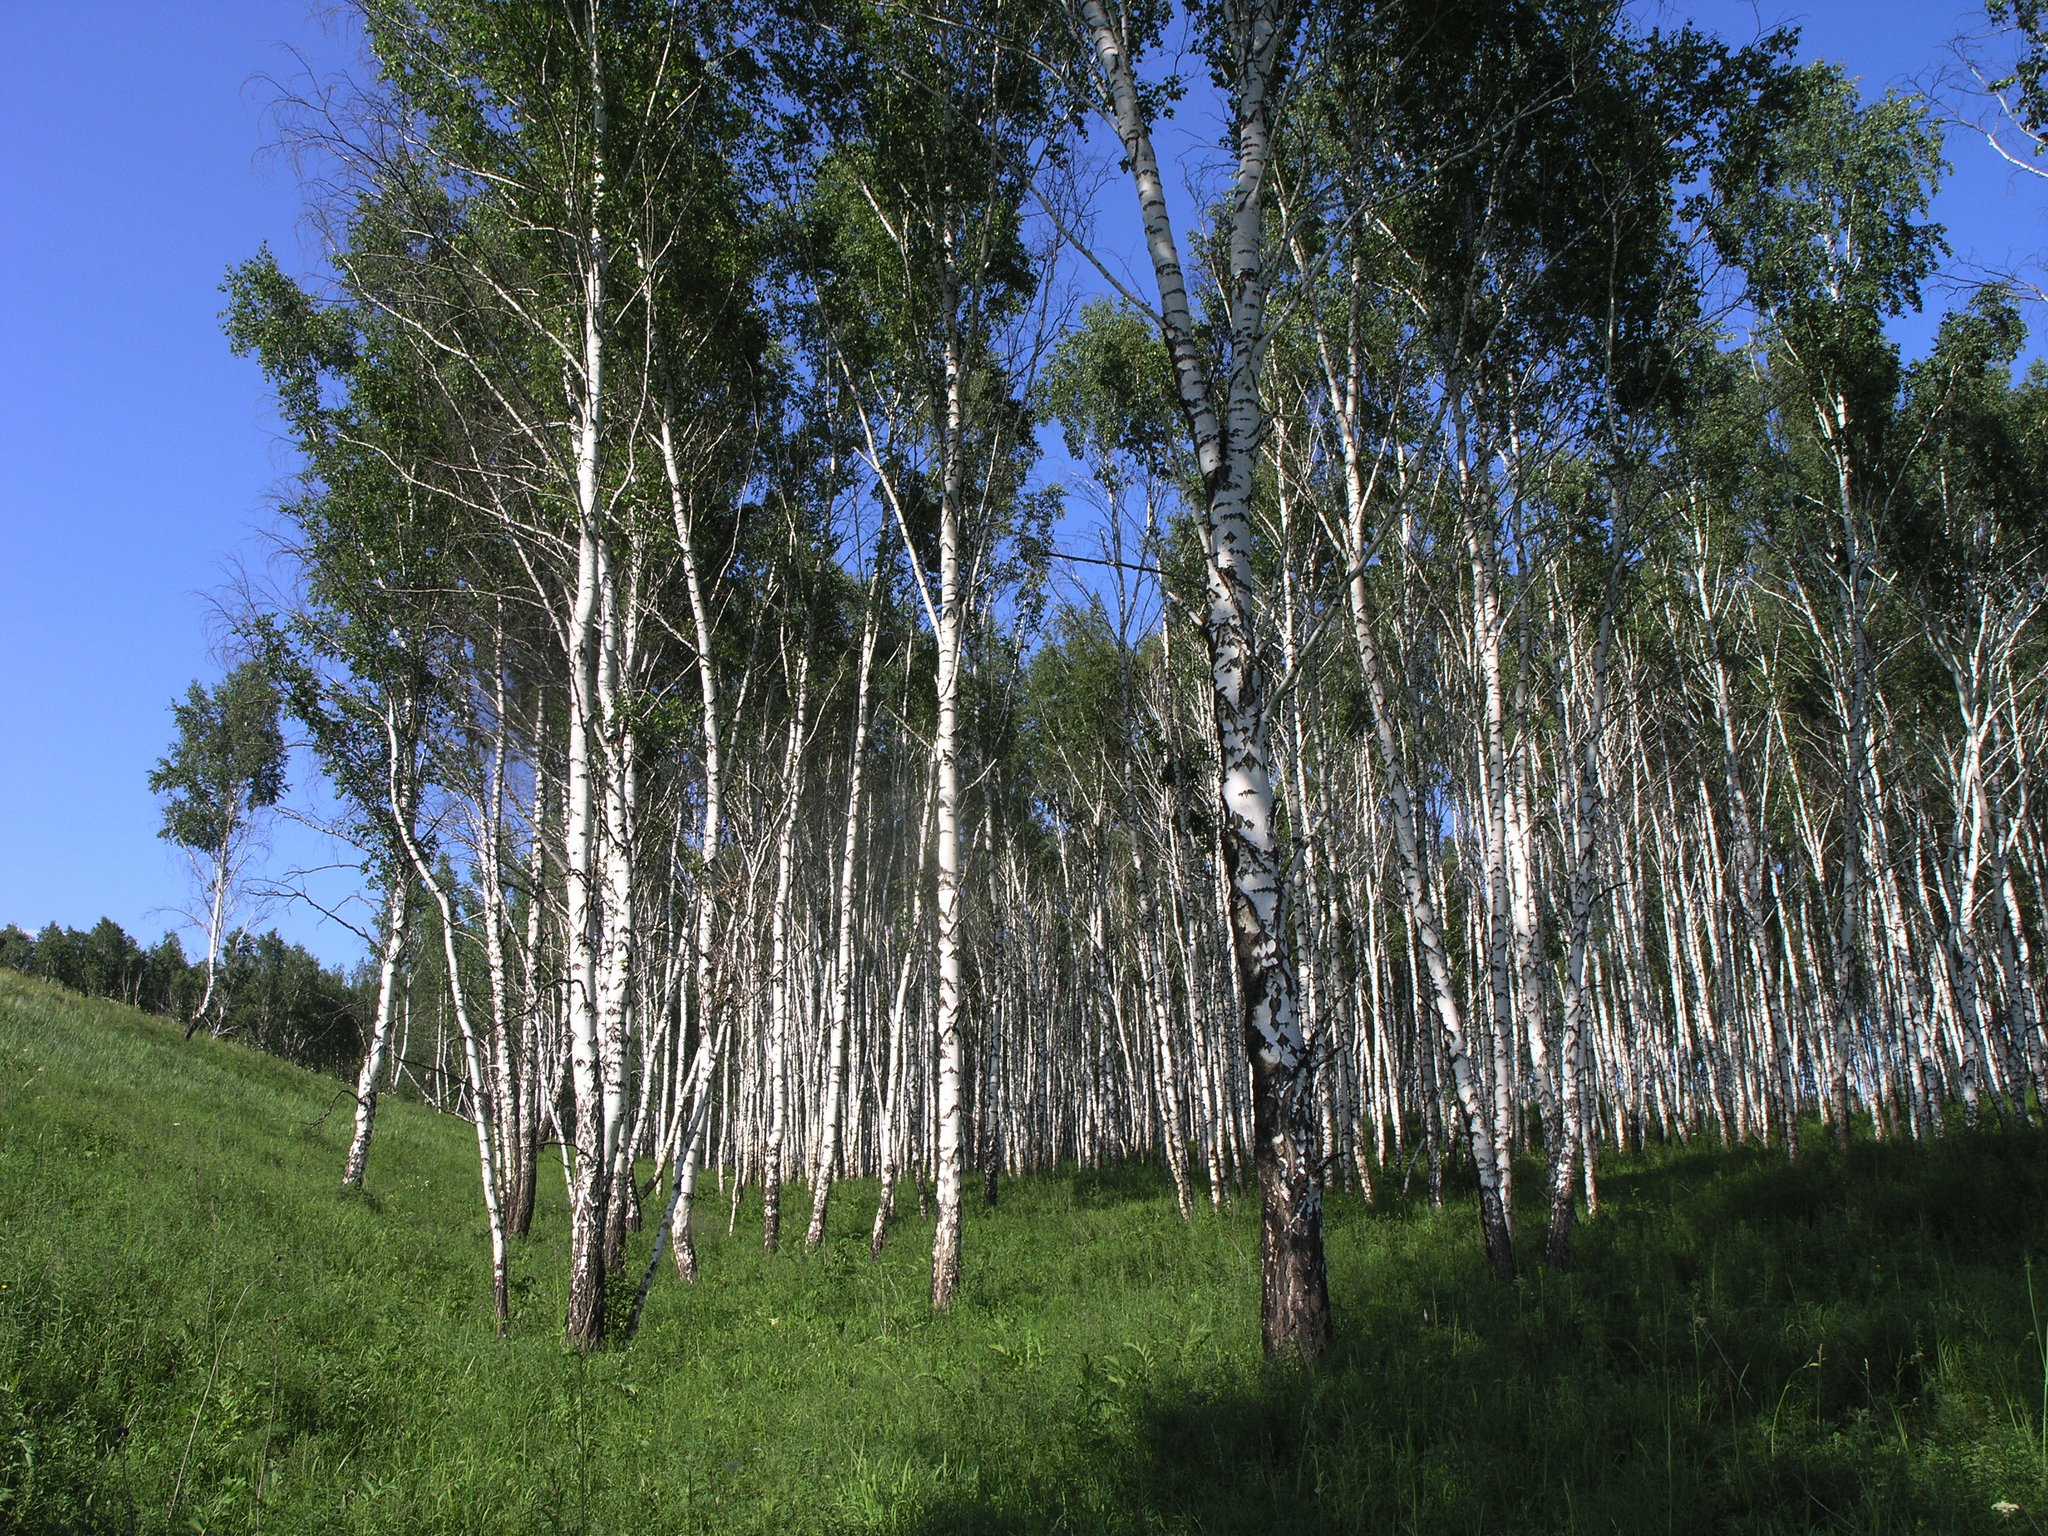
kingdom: Plantae
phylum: Tracheophyta
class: Magnoliopsida
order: Fagales
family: Betulaceae
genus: Betula
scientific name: Betula pendula
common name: Silver birch
